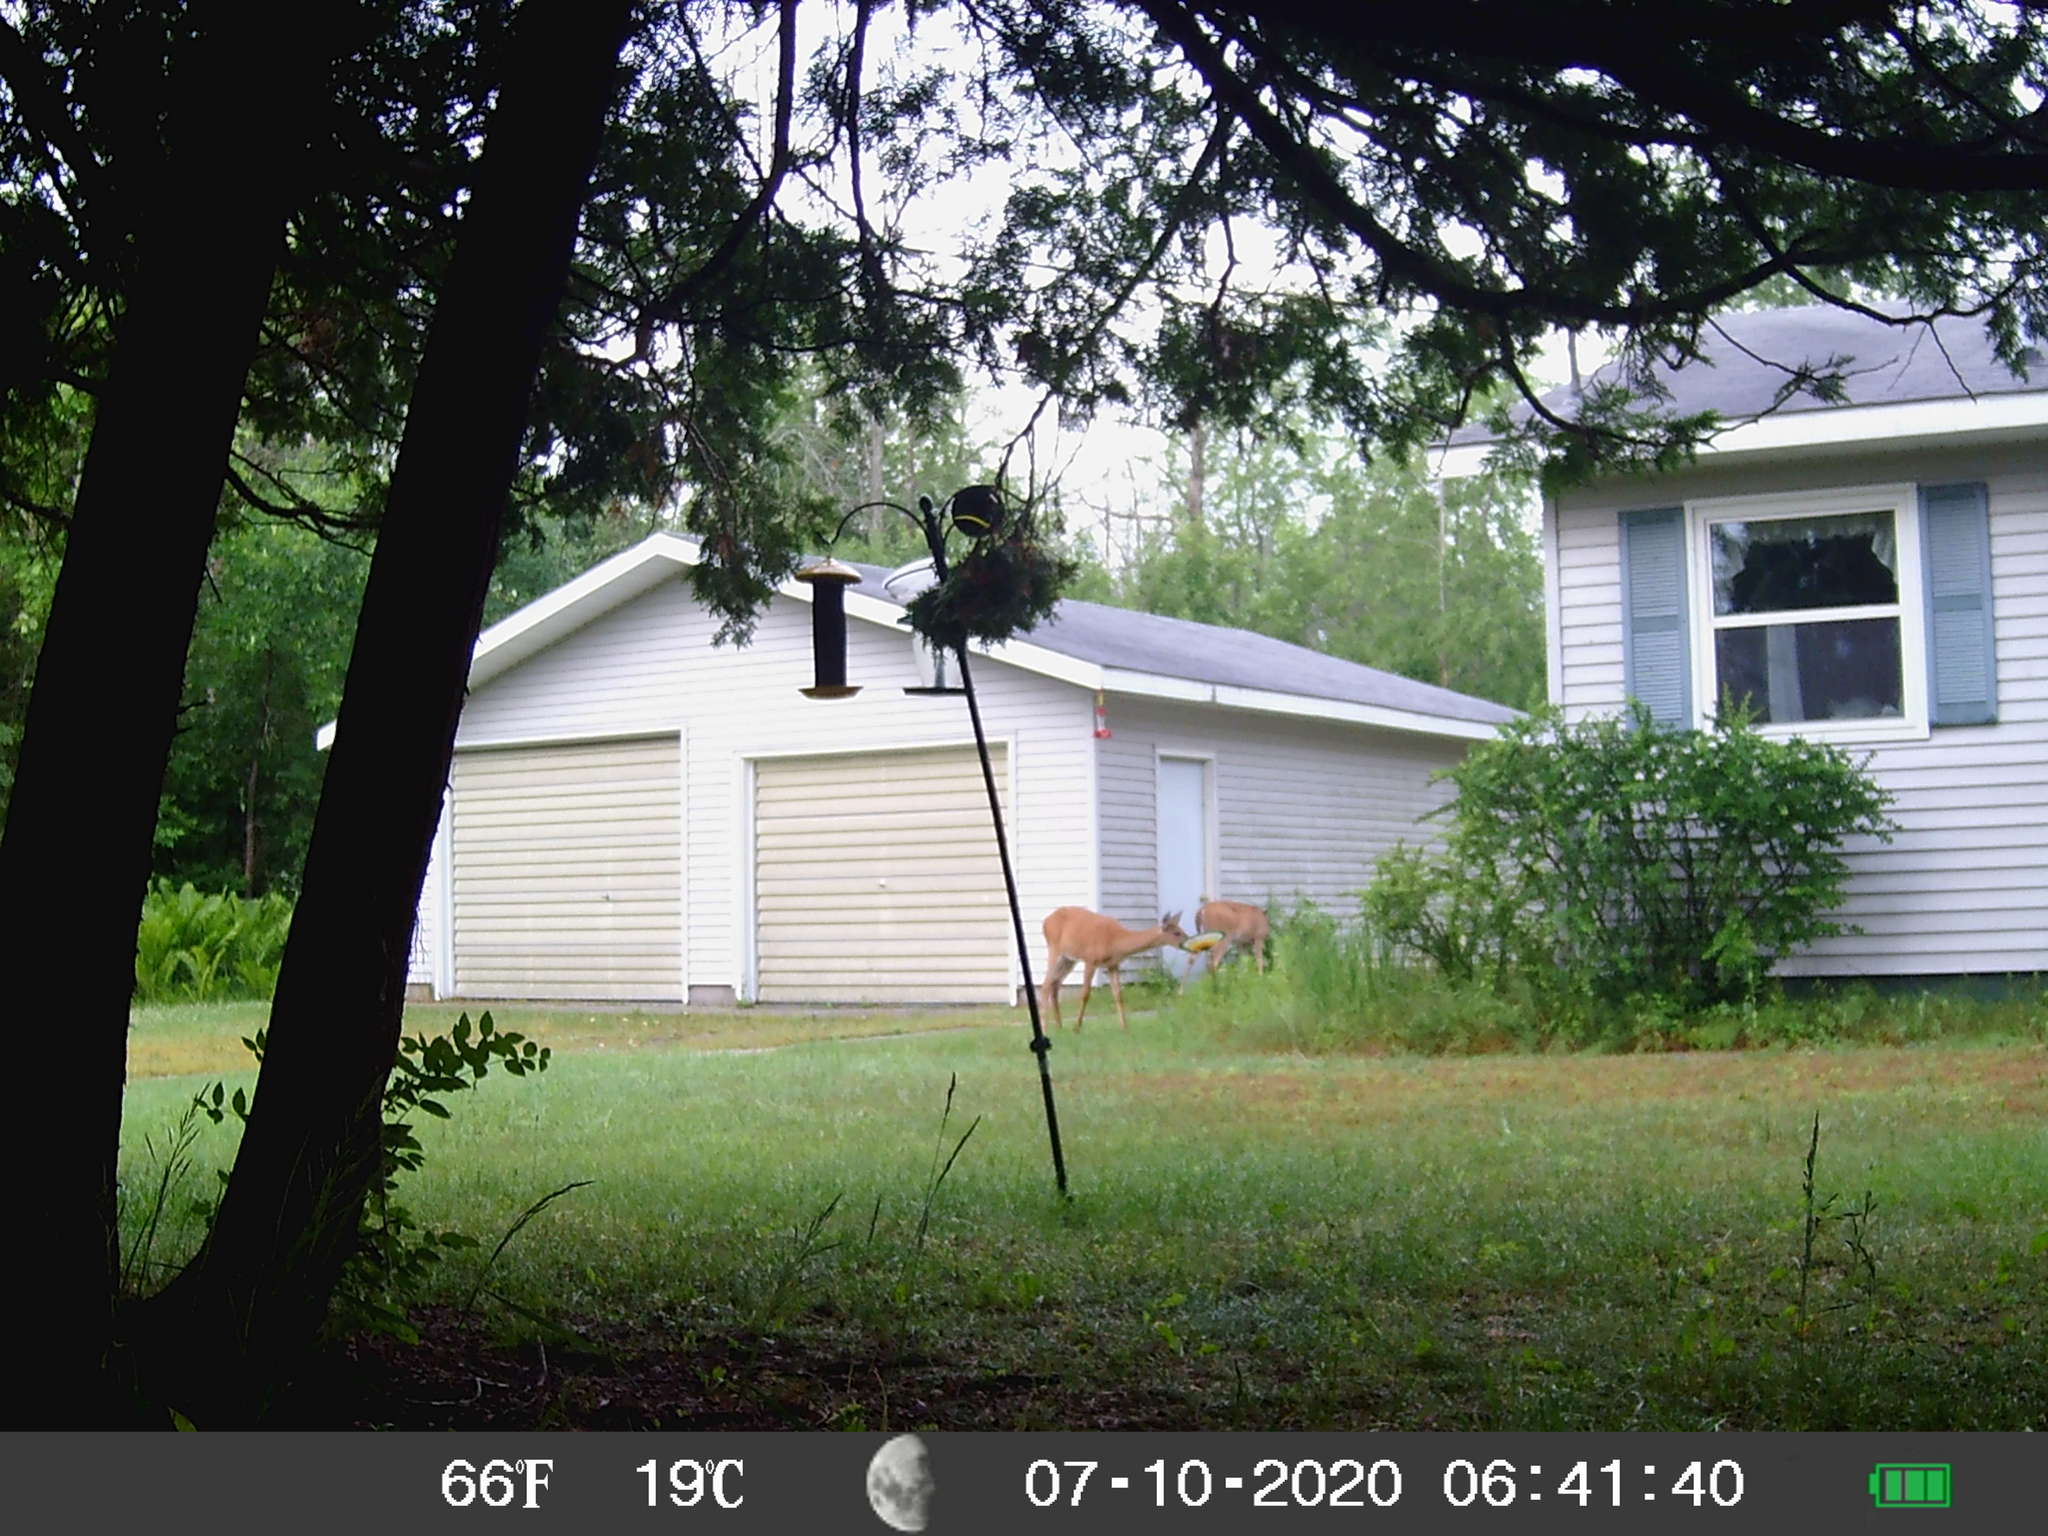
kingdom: Animalia
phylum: Chordata
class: Mammalia
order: Artiodactyla
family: Cervidae
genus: Odocoileus
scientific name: Odocoileus virginianus
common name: White-tailed deer
